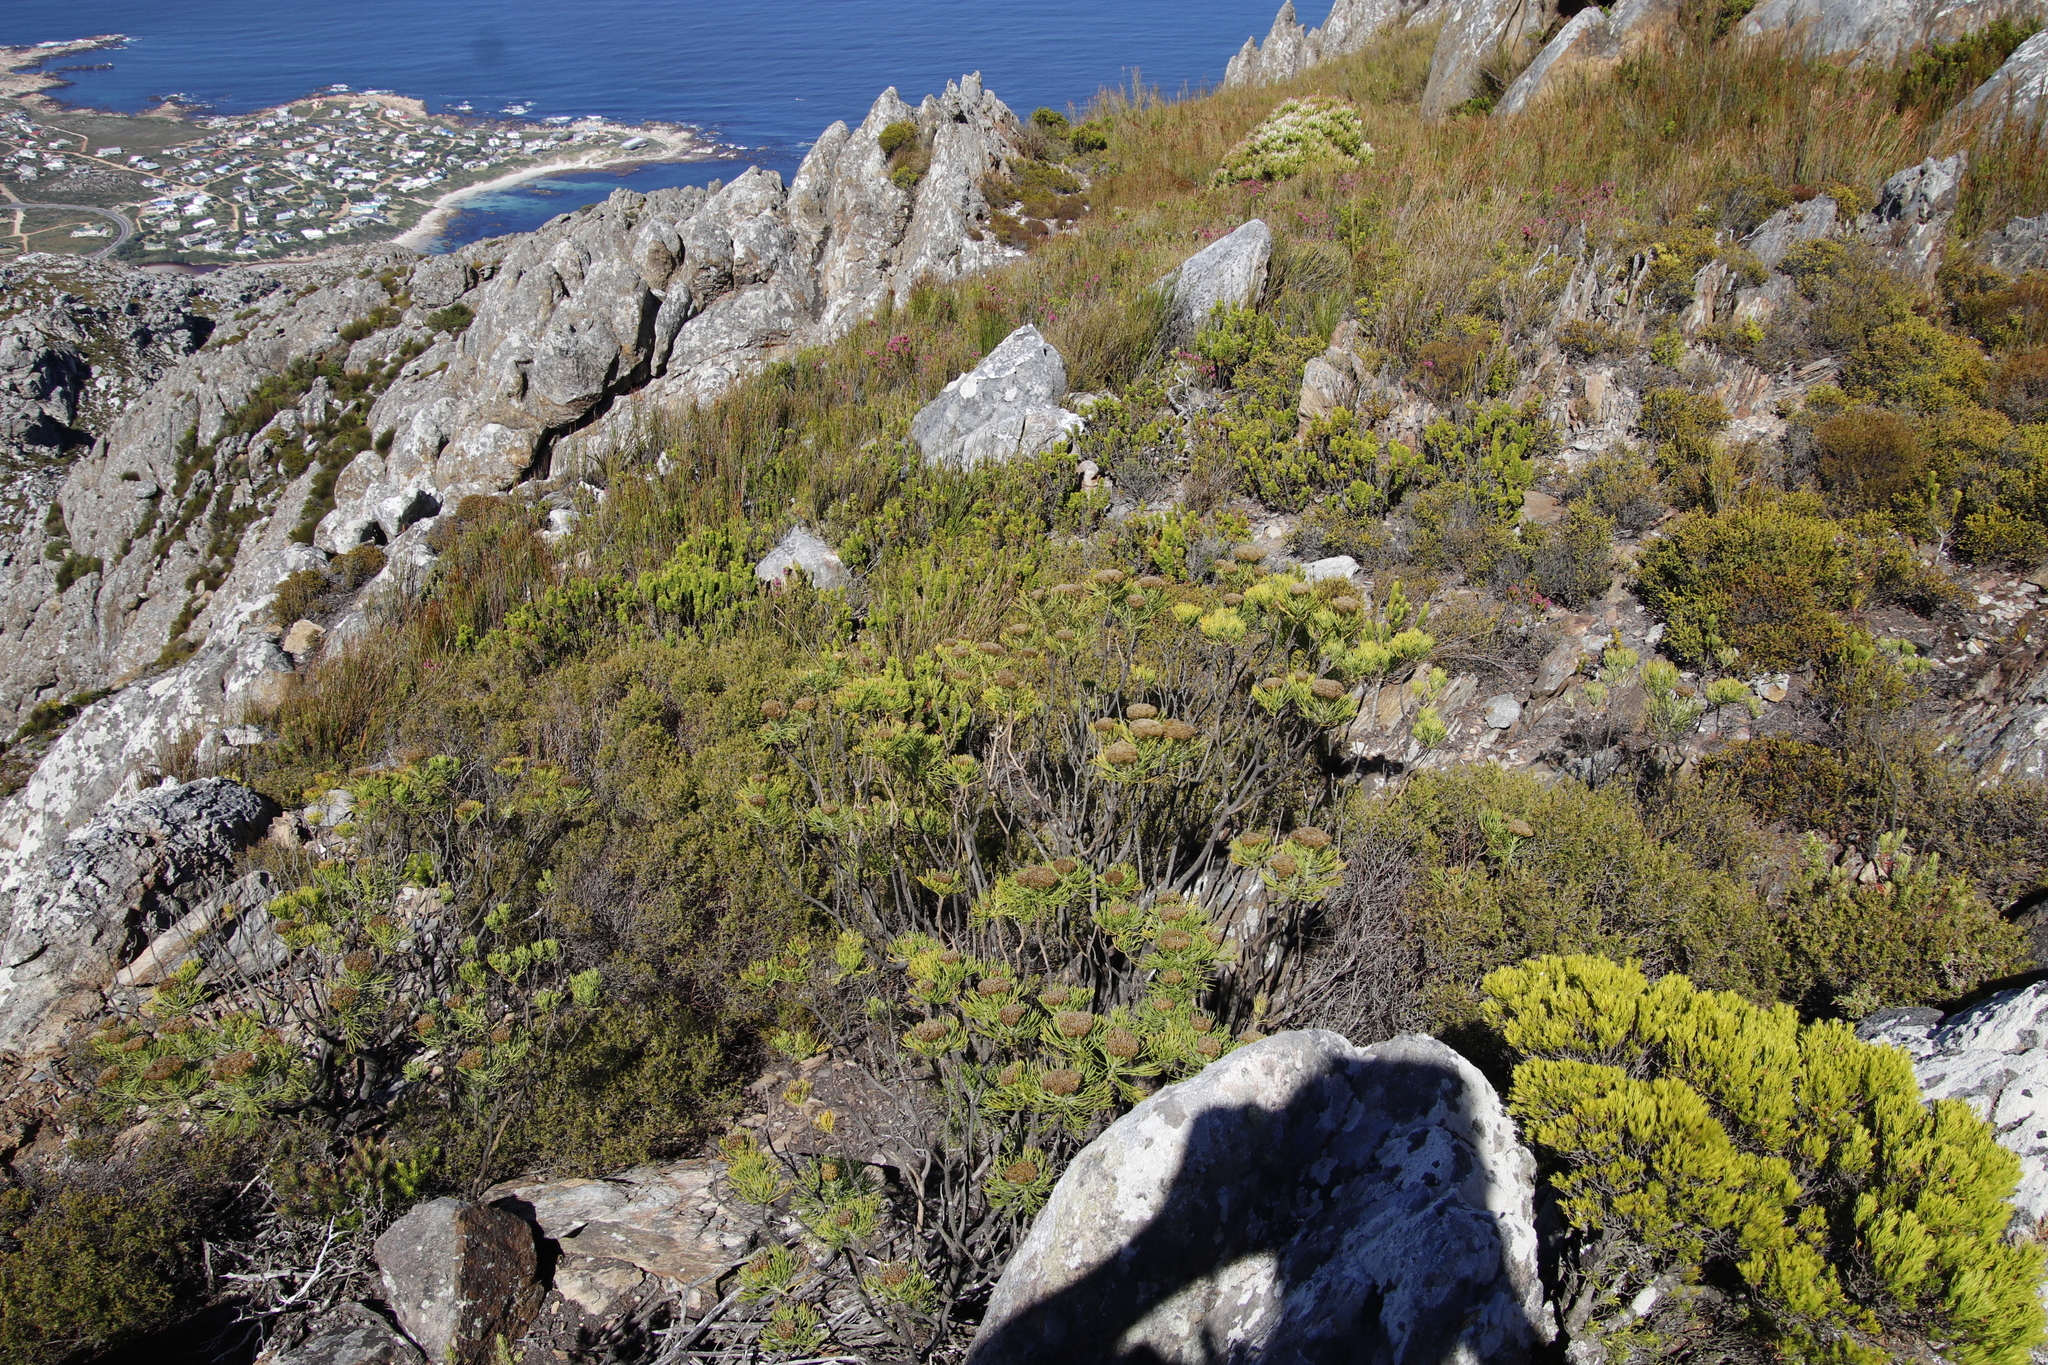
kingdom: Plantae
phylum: Tracheophyta
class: Magnoliopsida
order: Asterales
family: Asteraceae
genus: Hymenolepis
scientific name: Hymenolepis crithmifolia
